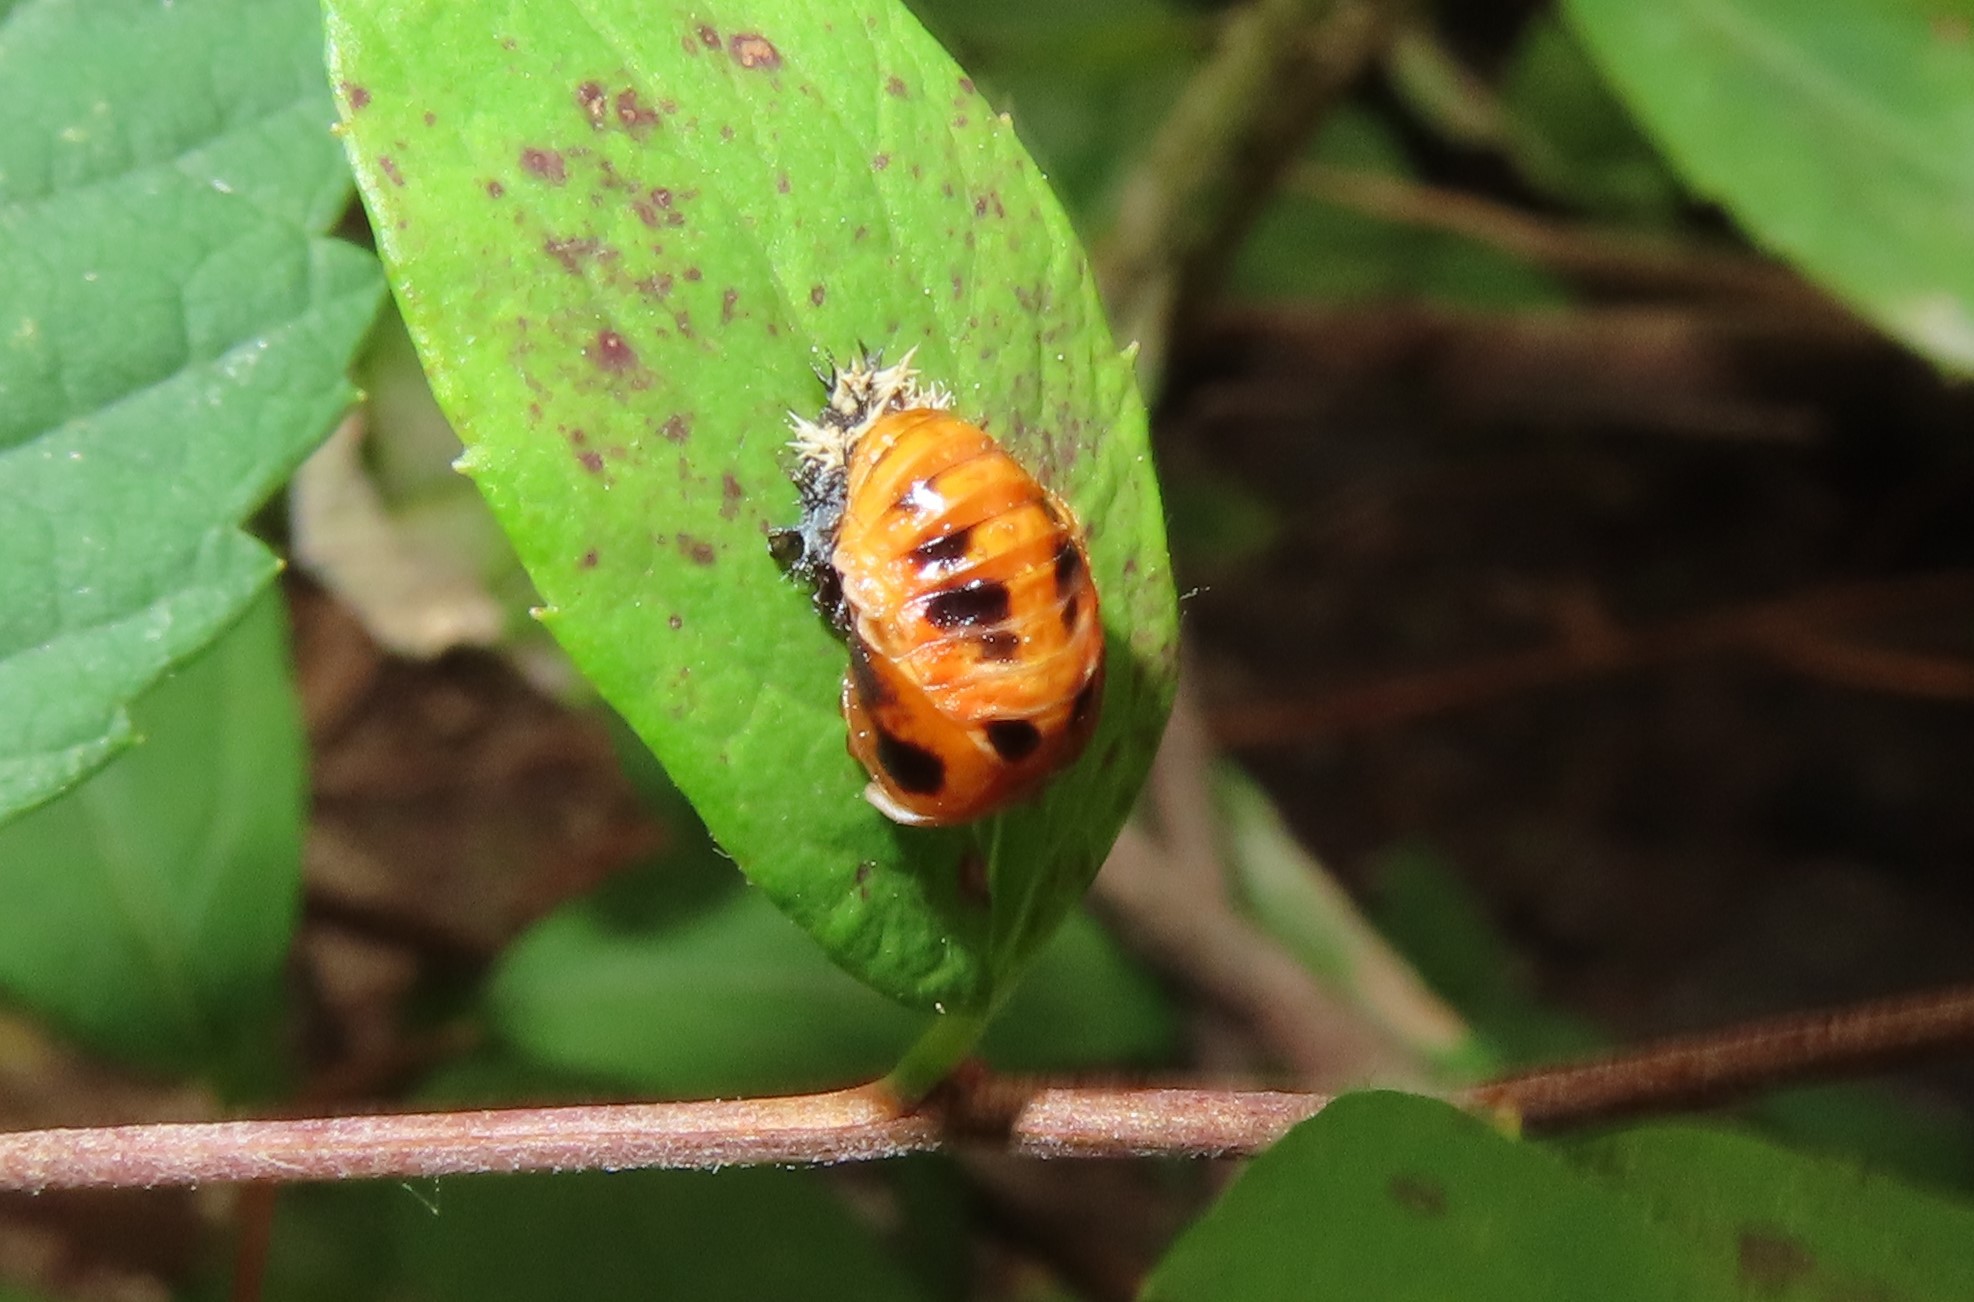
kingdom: Animalia
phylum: Arthropoda
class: Insecta
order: Coleoptera
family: Coccinellidae
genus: Harmonia
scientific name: Harmonia axyridis
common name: Harlequin ladybird
